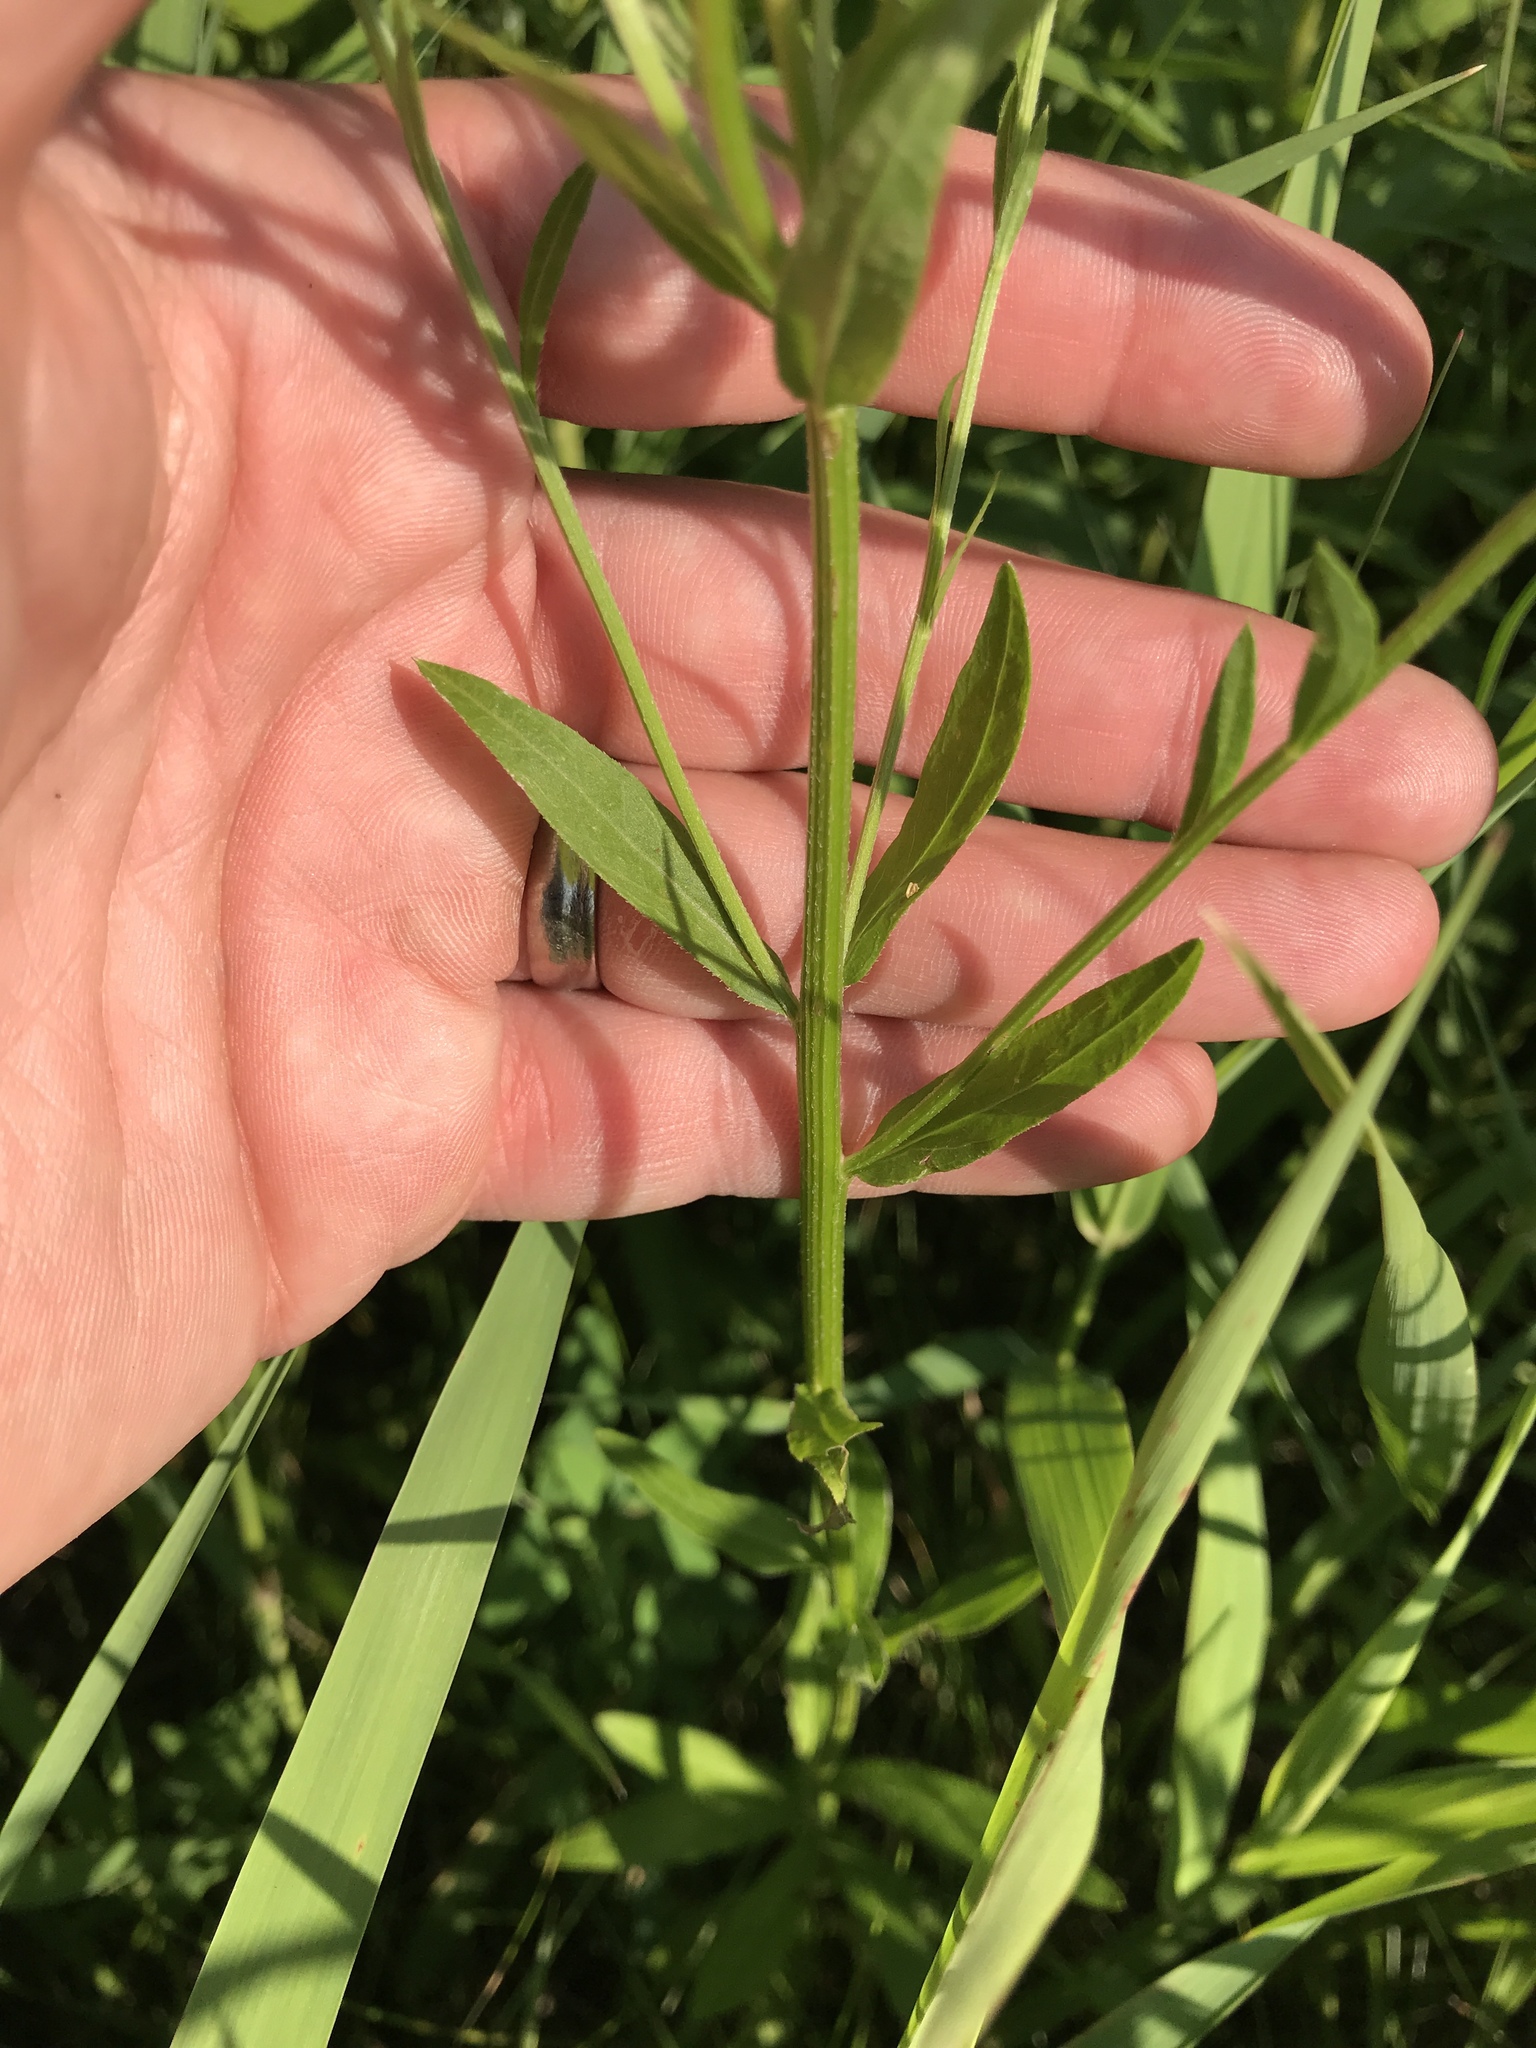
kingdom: Plantae
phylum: Tracheophyta
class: Magnoliopsida
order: Asterales
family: Asteraceae
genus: Erigeron
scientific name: Erigeron strigosus
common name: Common eastern fleabane
